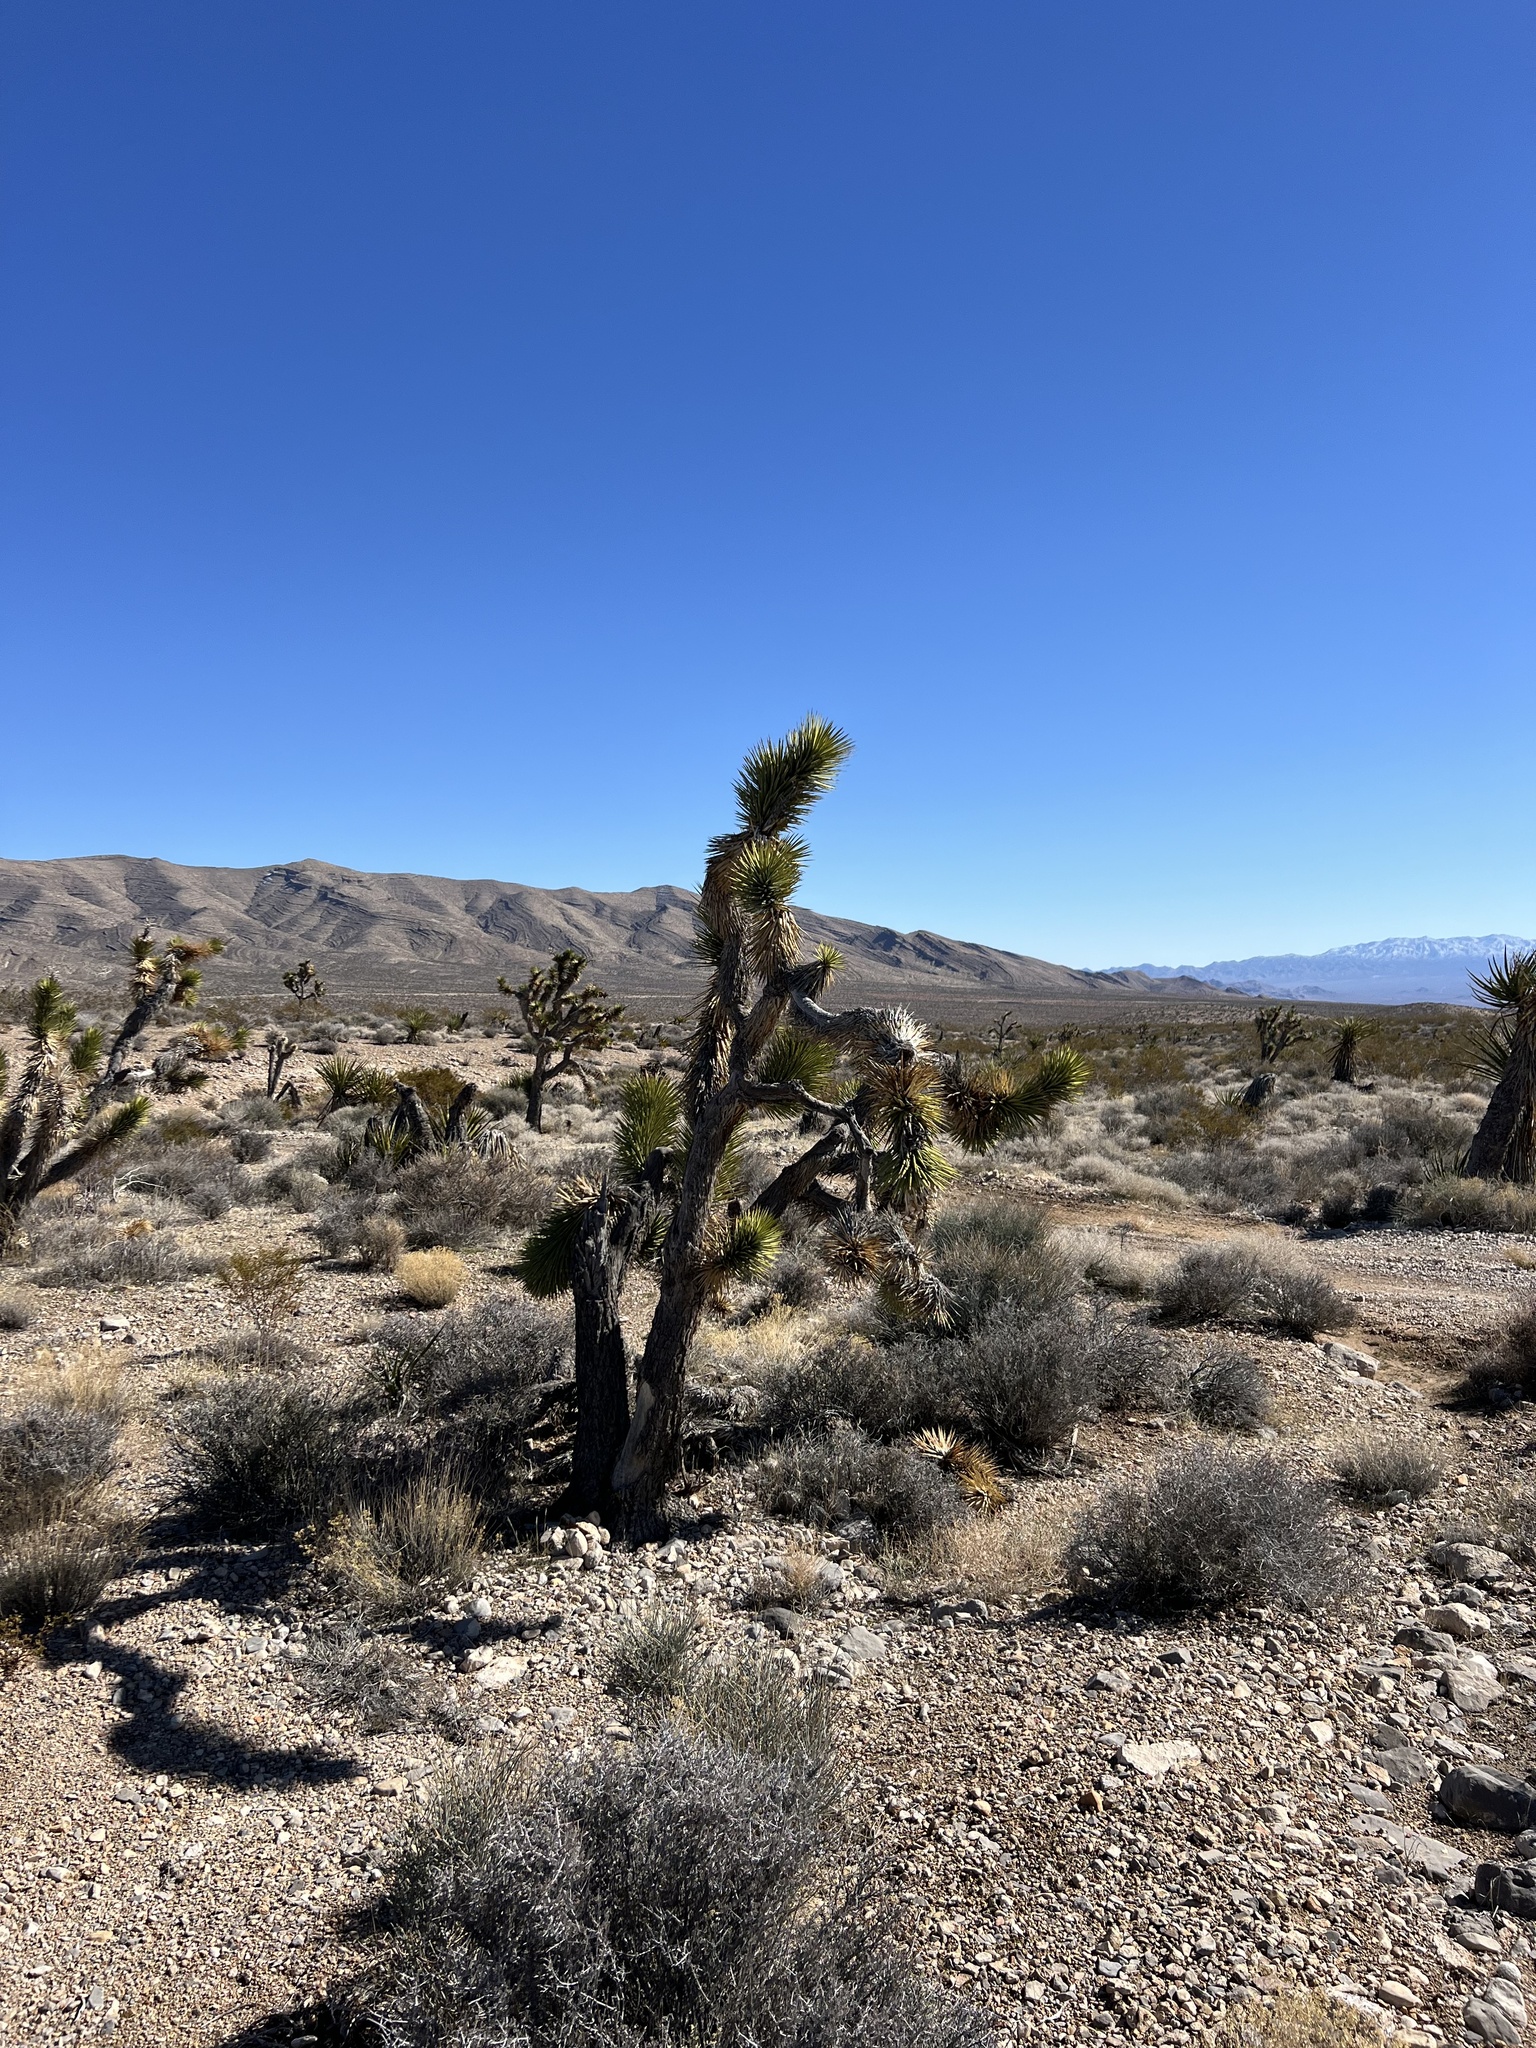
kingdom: Plantae
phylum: Tracheophyta
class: Liliopsida
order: Asparagales
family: Asparagaceae
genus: Yucca
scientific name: Yucca brevifolia
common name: Joshua tree
